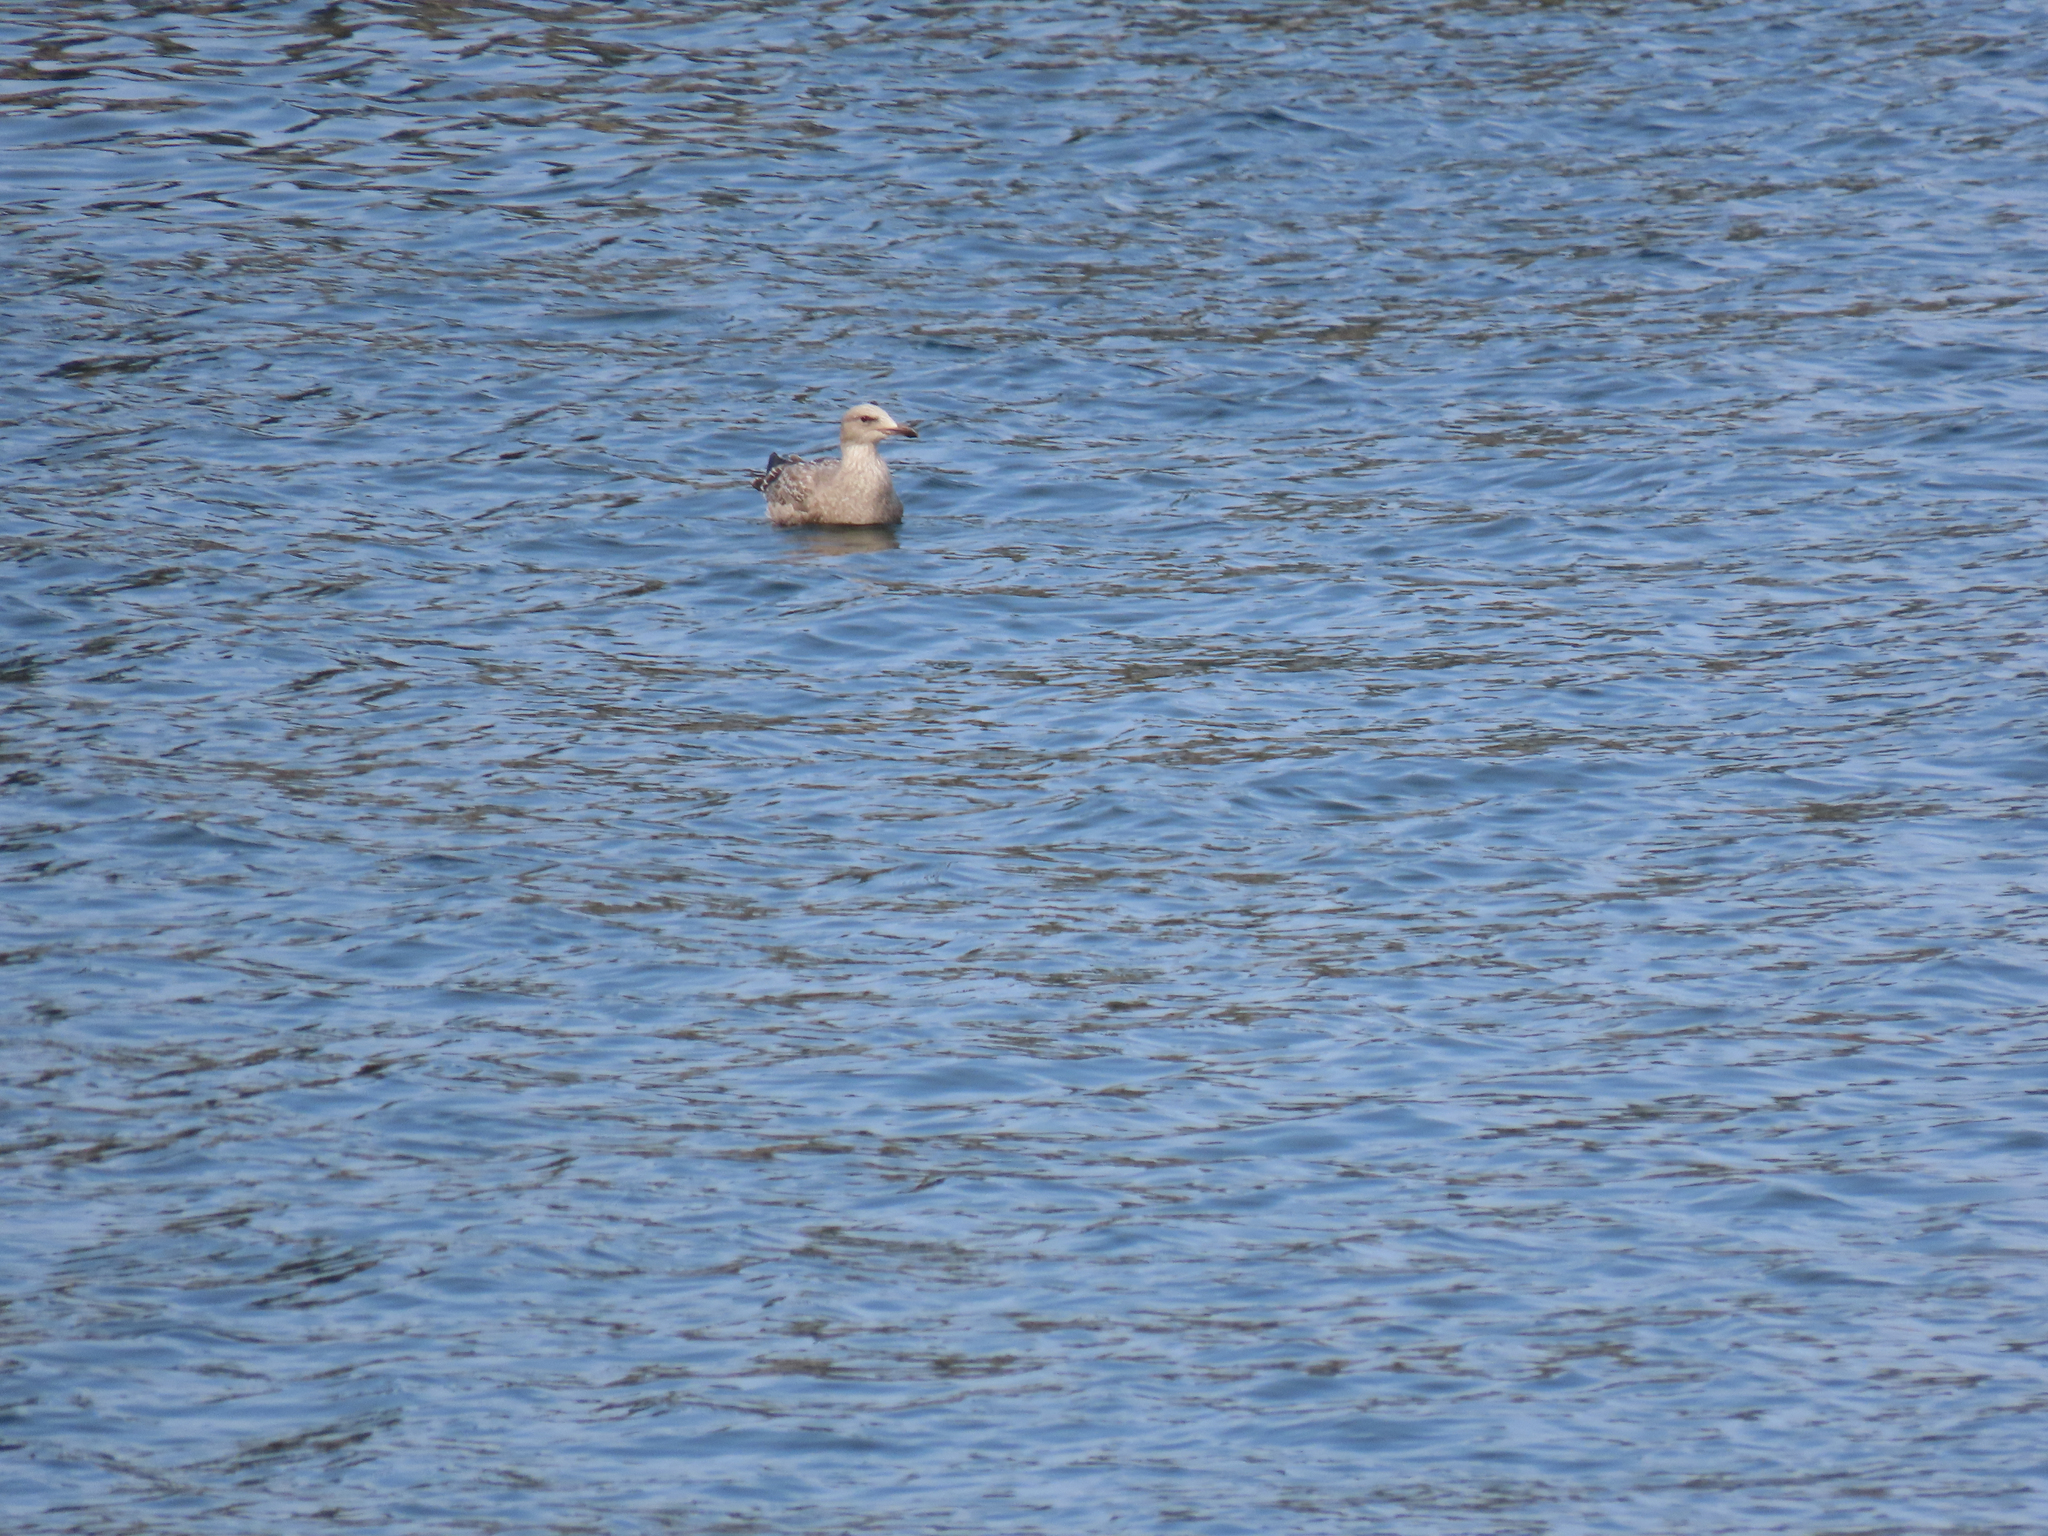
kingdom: Animalia
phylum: Chordata
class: Aves
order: Charadriiformes
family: Laridae
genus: Larus
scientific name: Larus argentatus
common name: Herring gull
